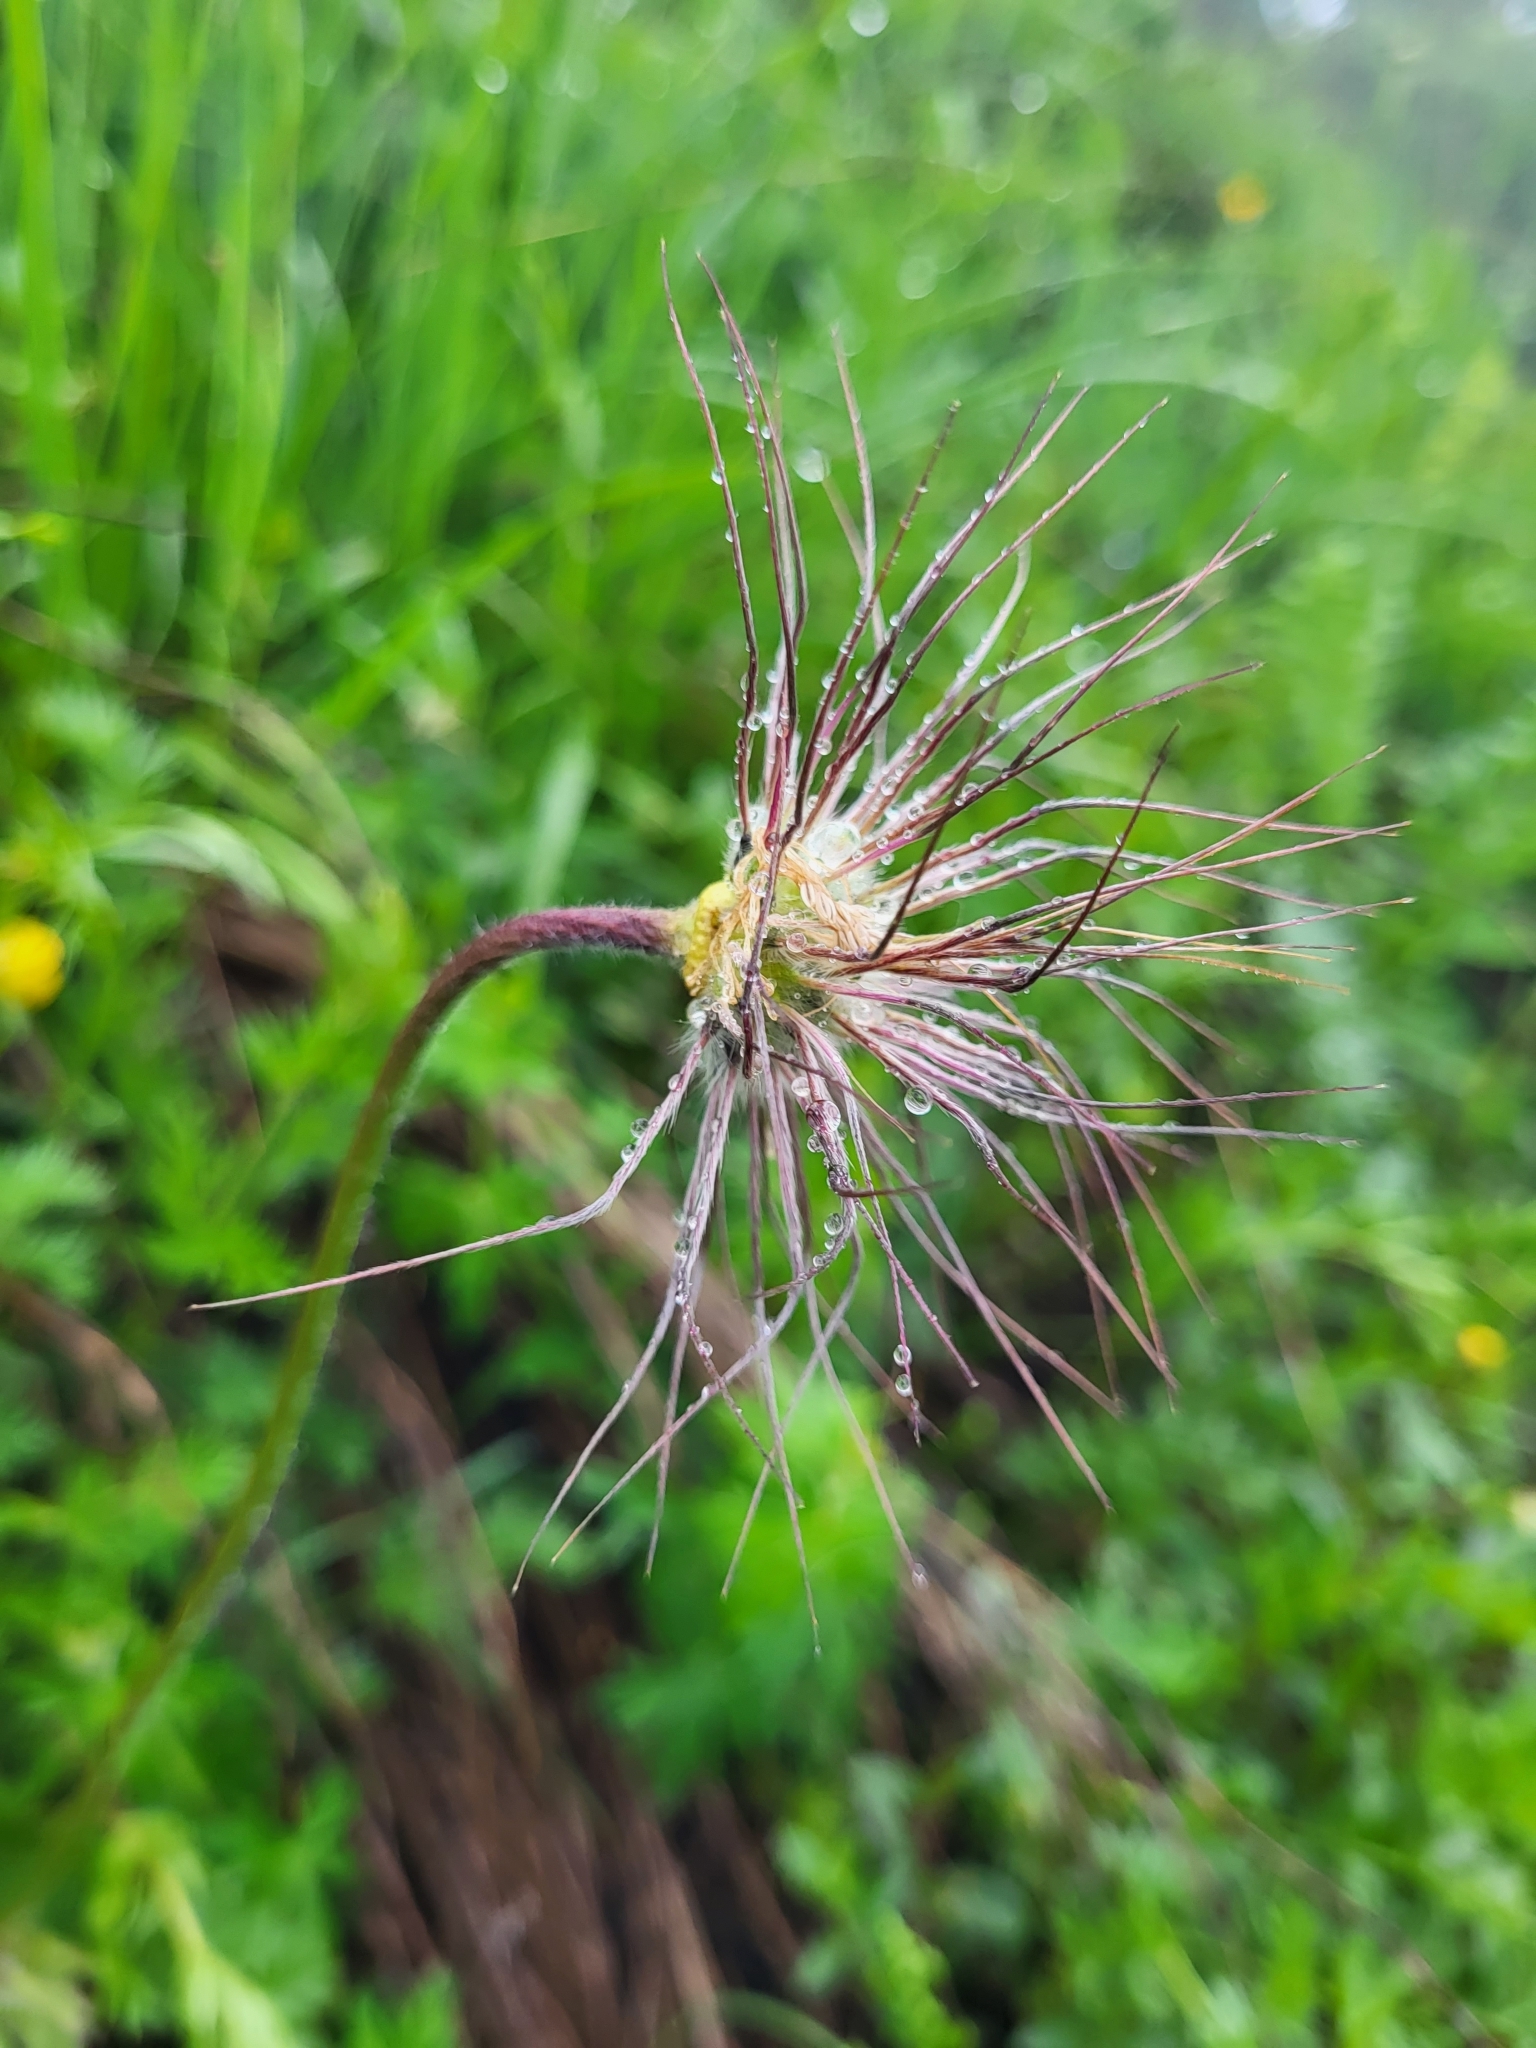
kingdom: Plantae
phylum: Tracheophyta
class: Magnoliopsida
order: Ranunculales
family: Ranunculaceae
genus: Pulsatilla
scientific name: Pulsatilla violacea
